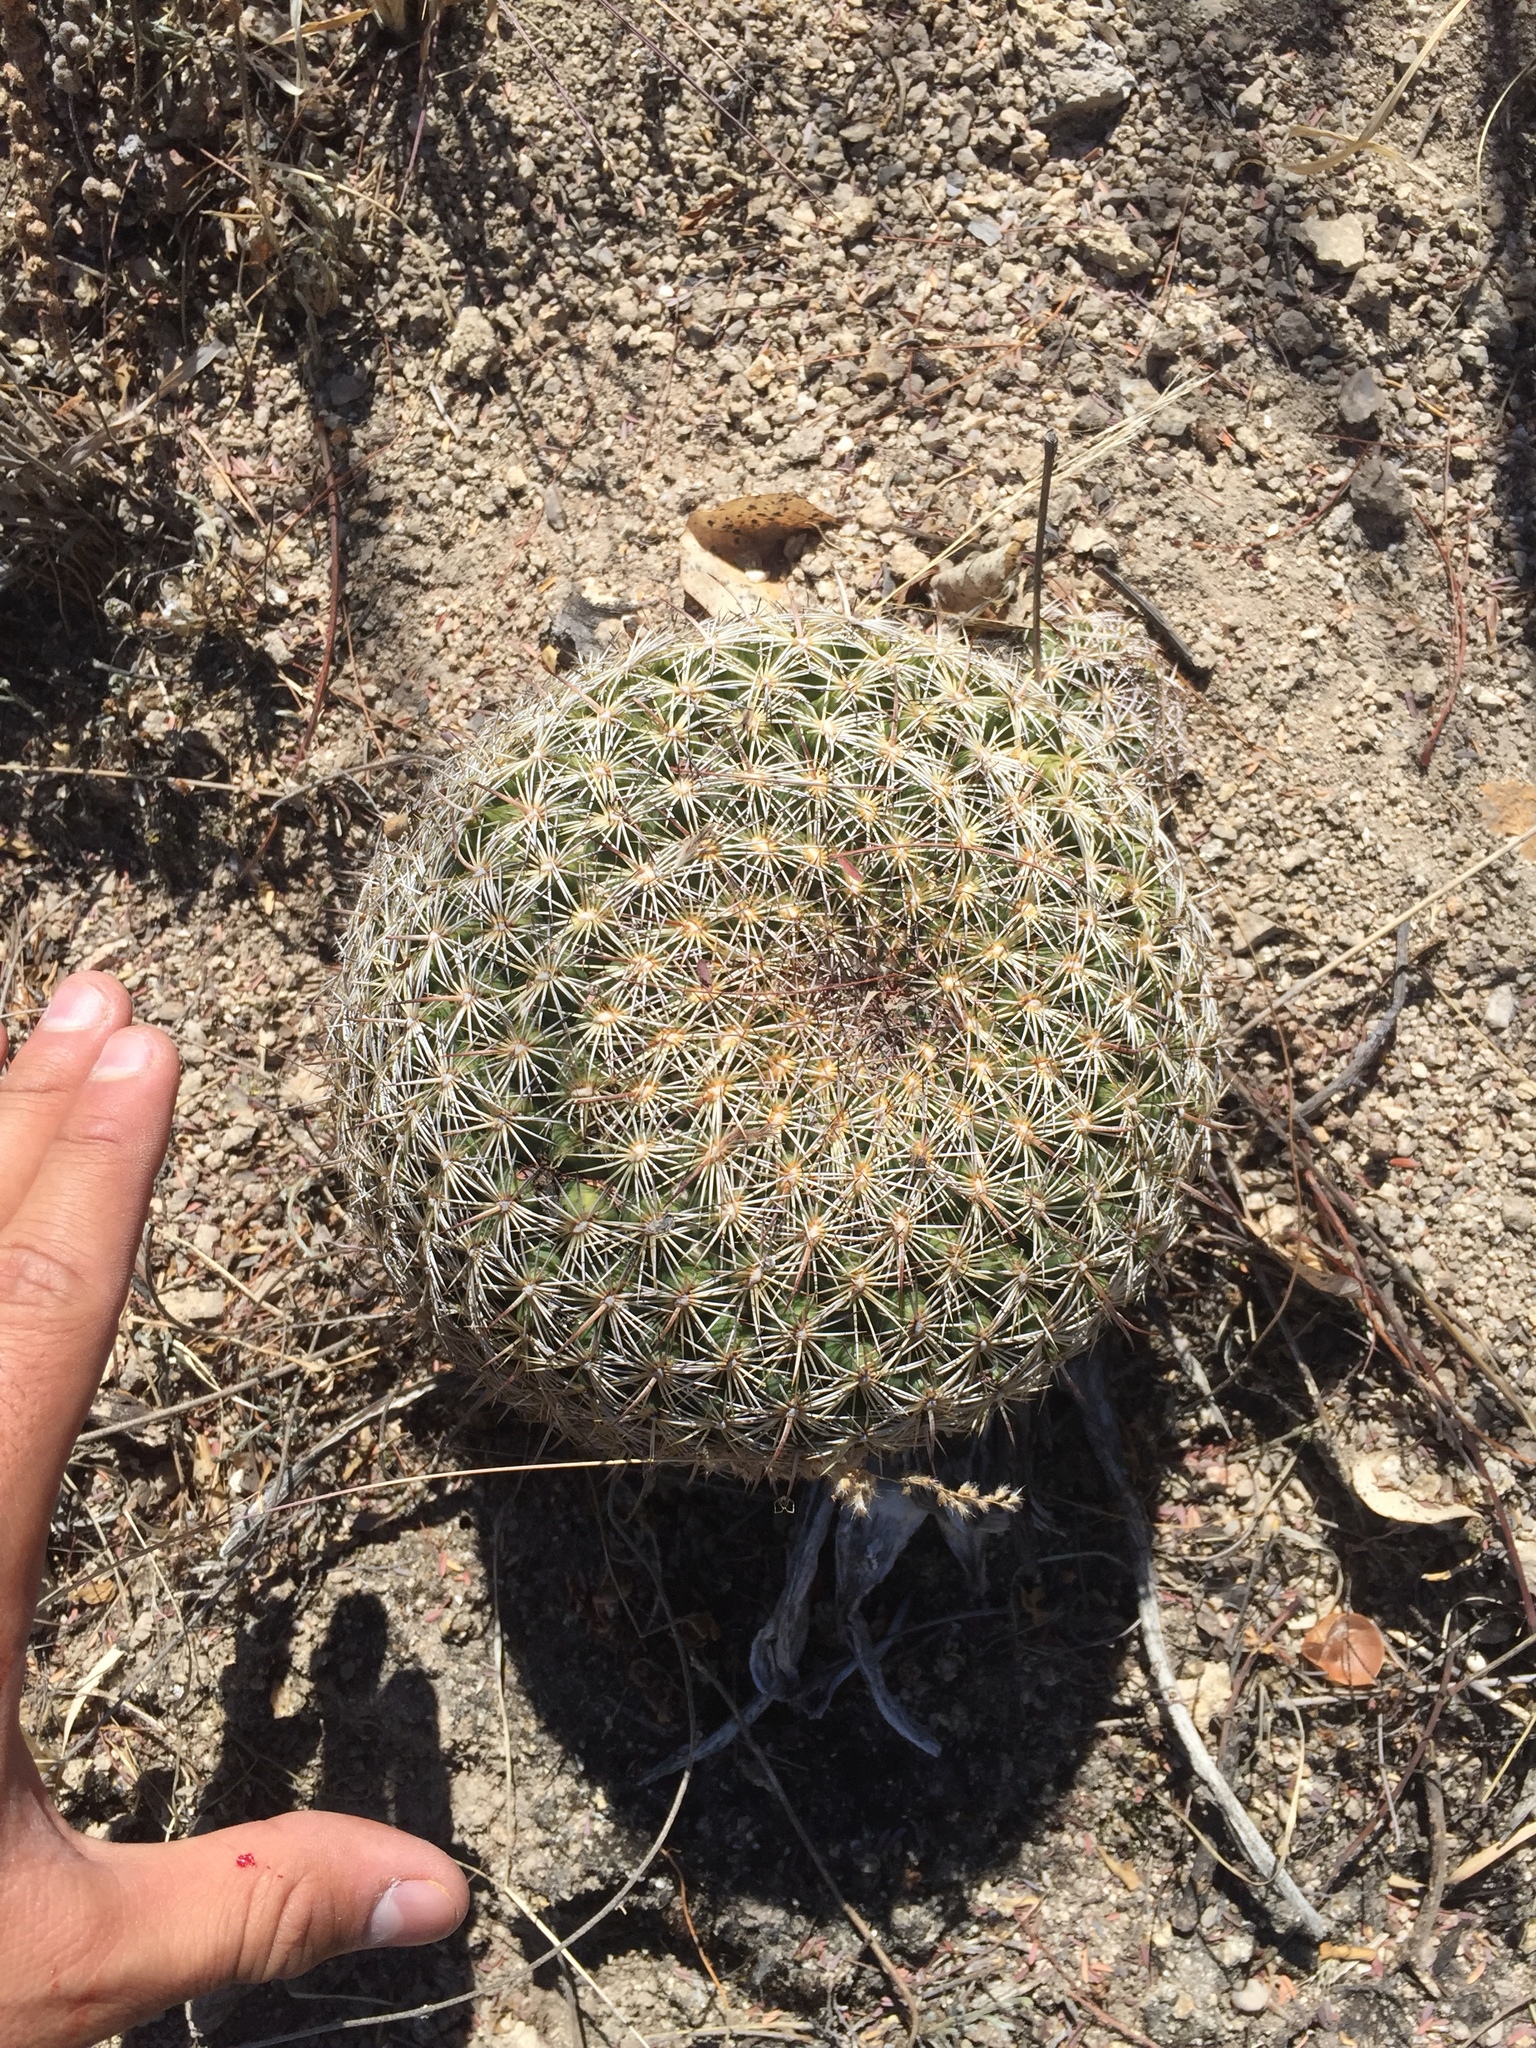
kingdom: Plantae
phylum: Tracheophyta
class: Magnoliopsida
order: Caryophyllales
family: Cactaceae
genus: Coryphantha
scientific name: Coryphantha recurvata
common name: Golden chested beehive
